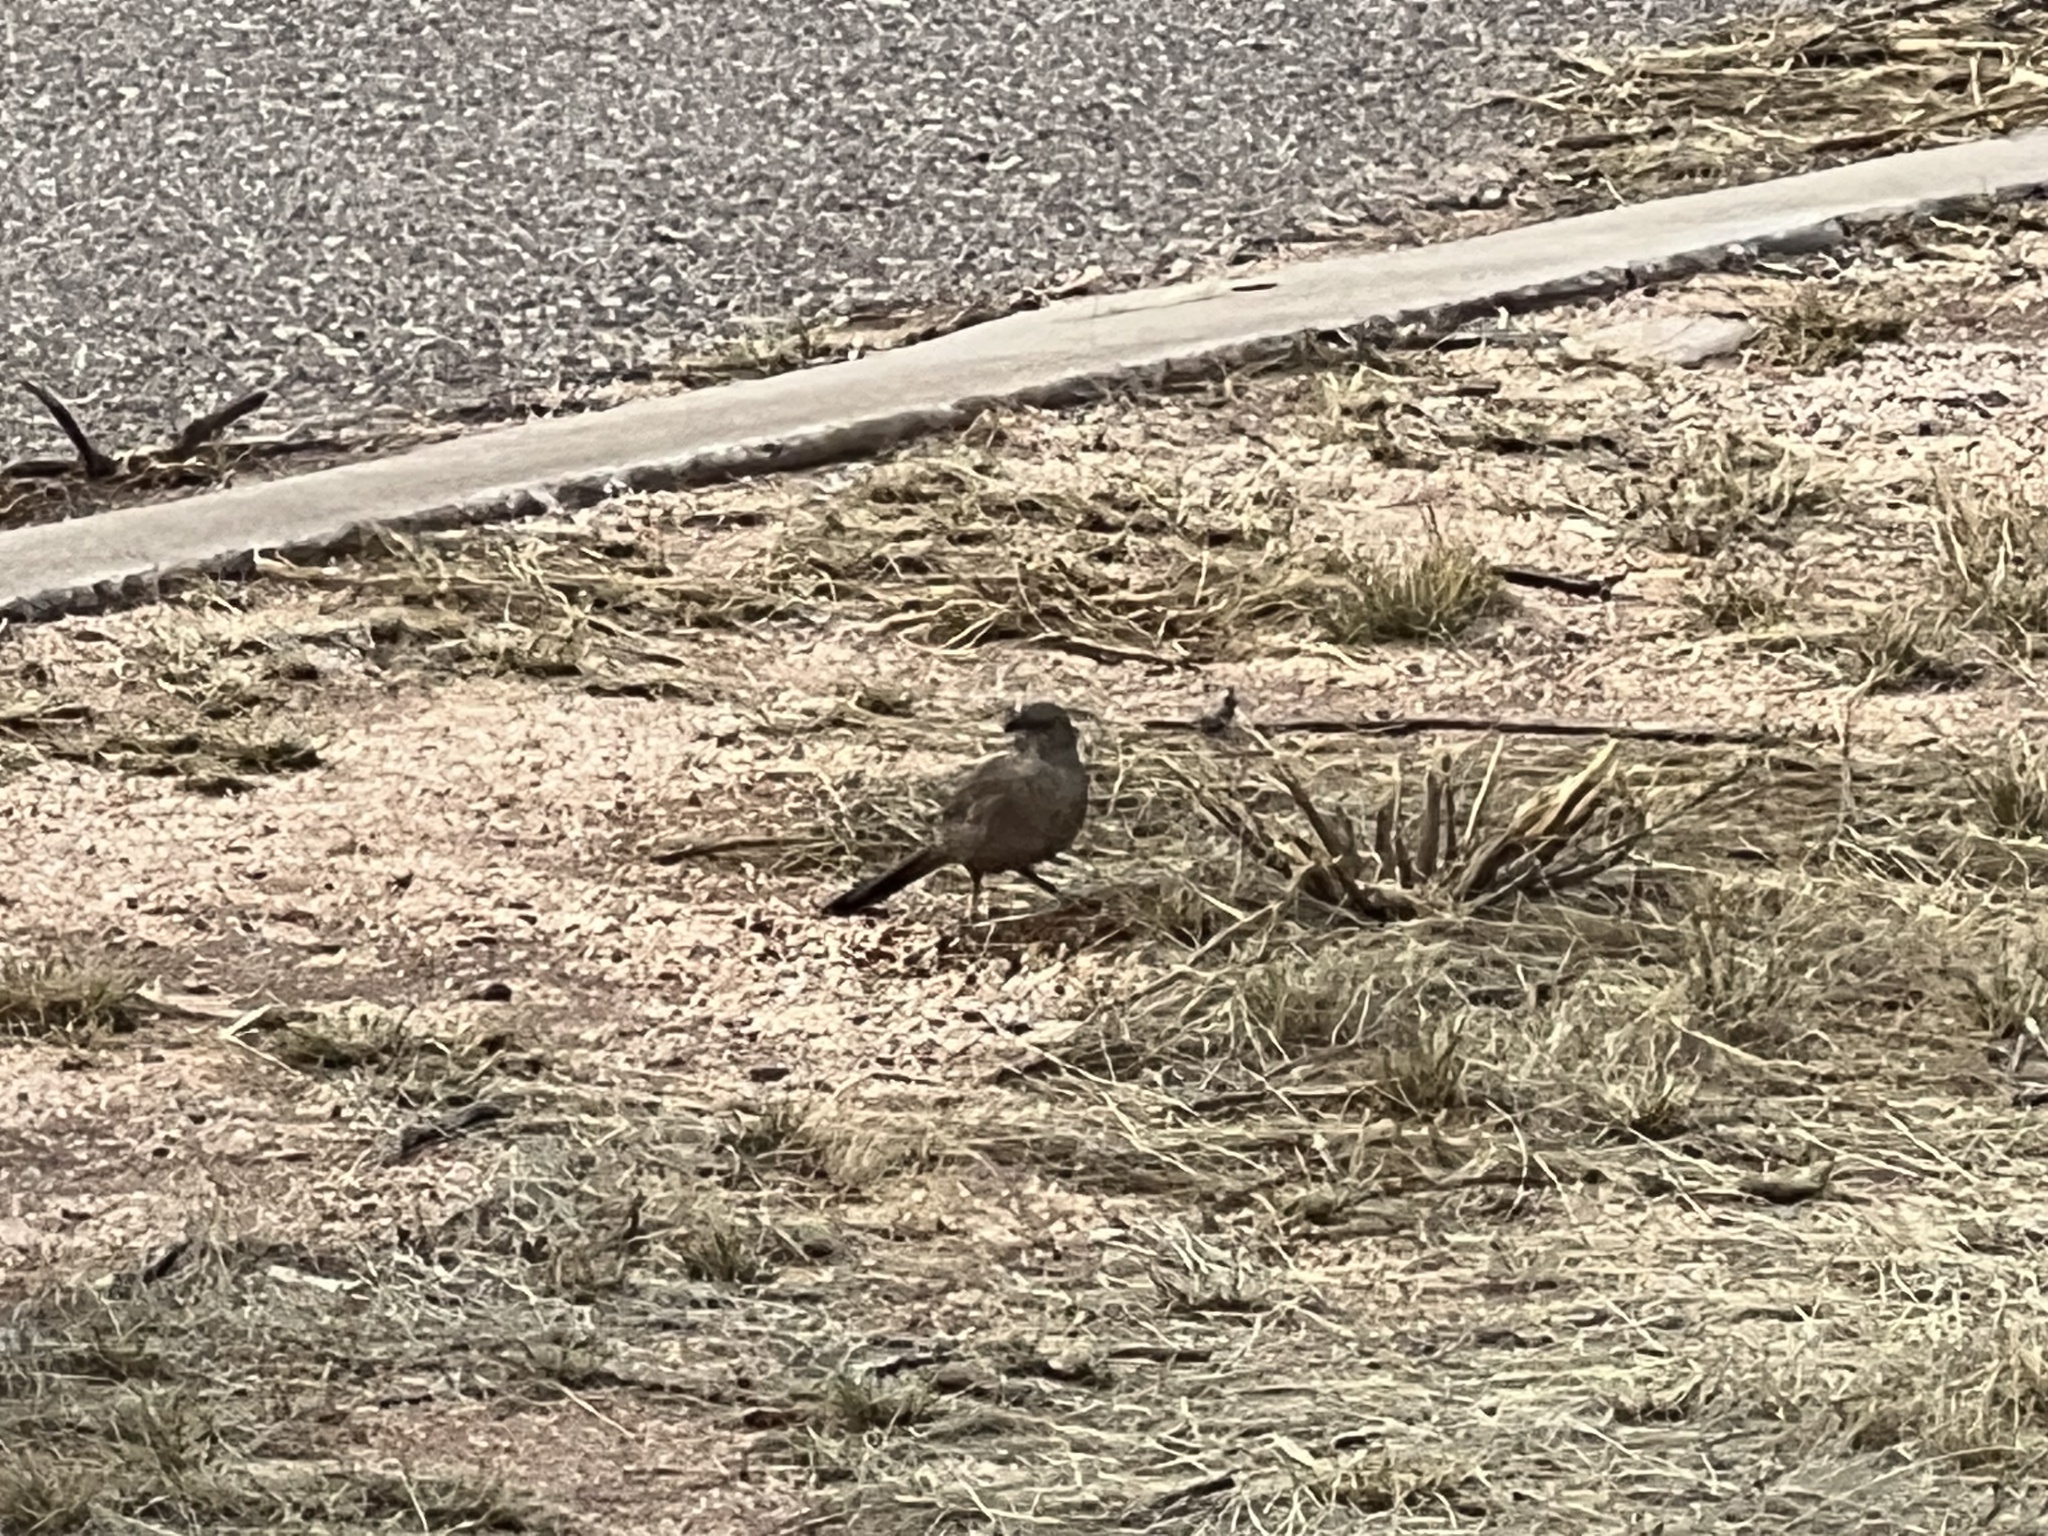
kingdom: Animalia
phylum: Chordata
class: Aves
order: Passeriformes
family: Mimidae
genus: Toxostoma
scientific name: Toxostoma curvirostre
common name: Curve-billed thrasher
